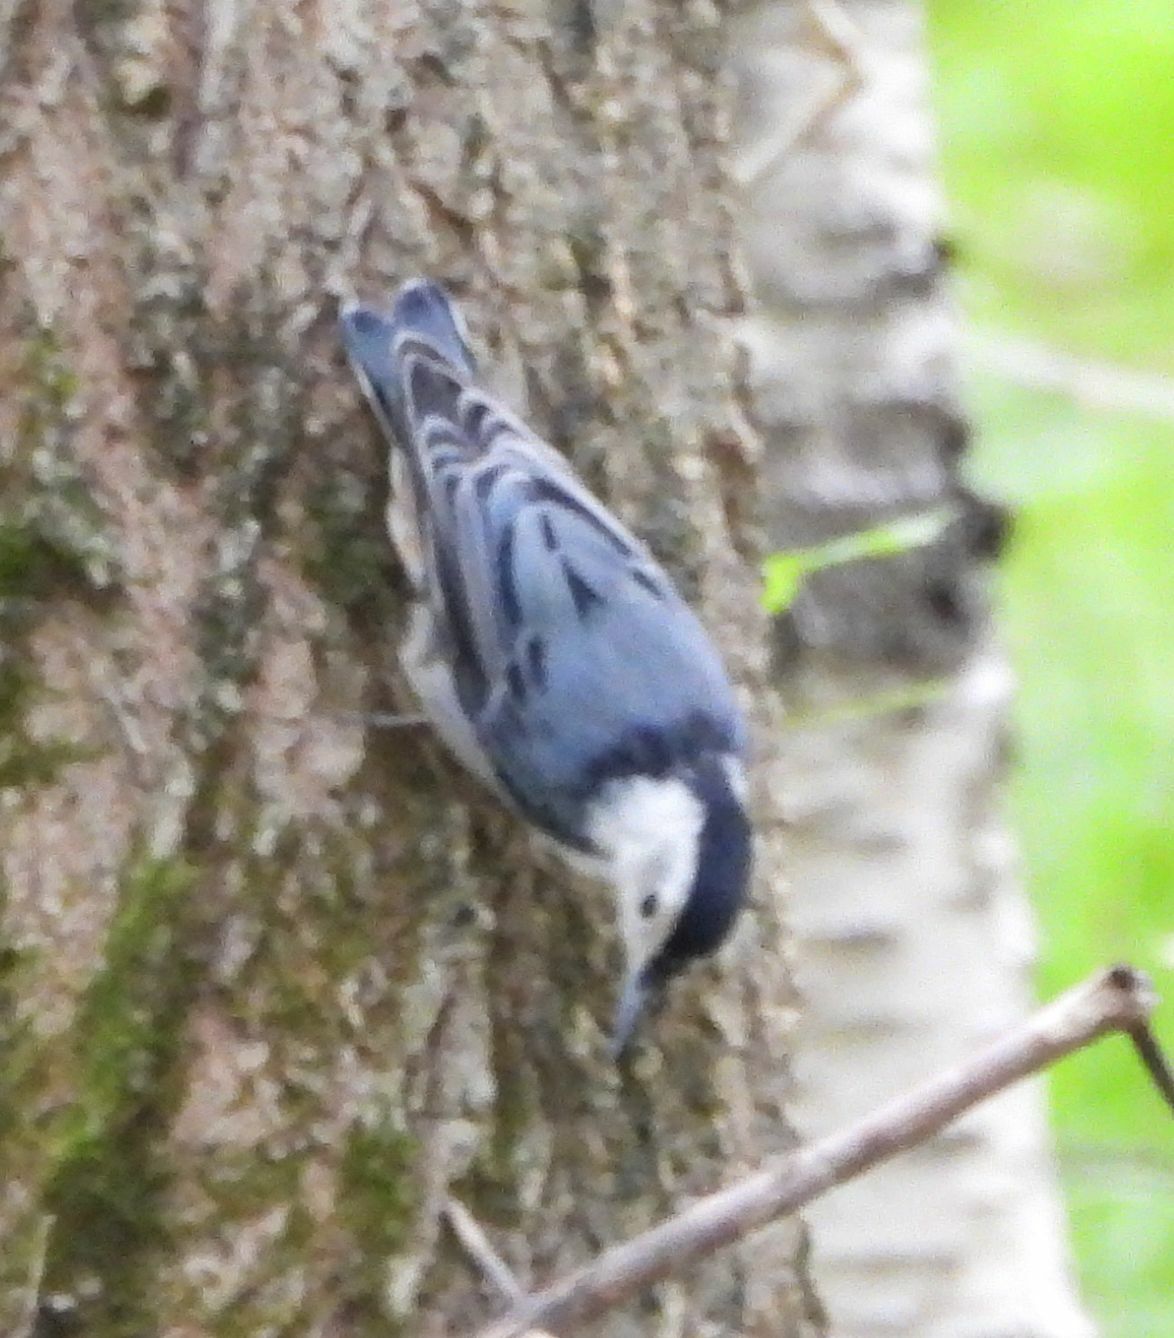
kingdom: Animalia
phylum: Chordata
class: Aves
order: Passeriformes
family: Sittidae
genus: Sitta
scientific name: Sitta carolinensis
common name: White-breasted nuthatch
